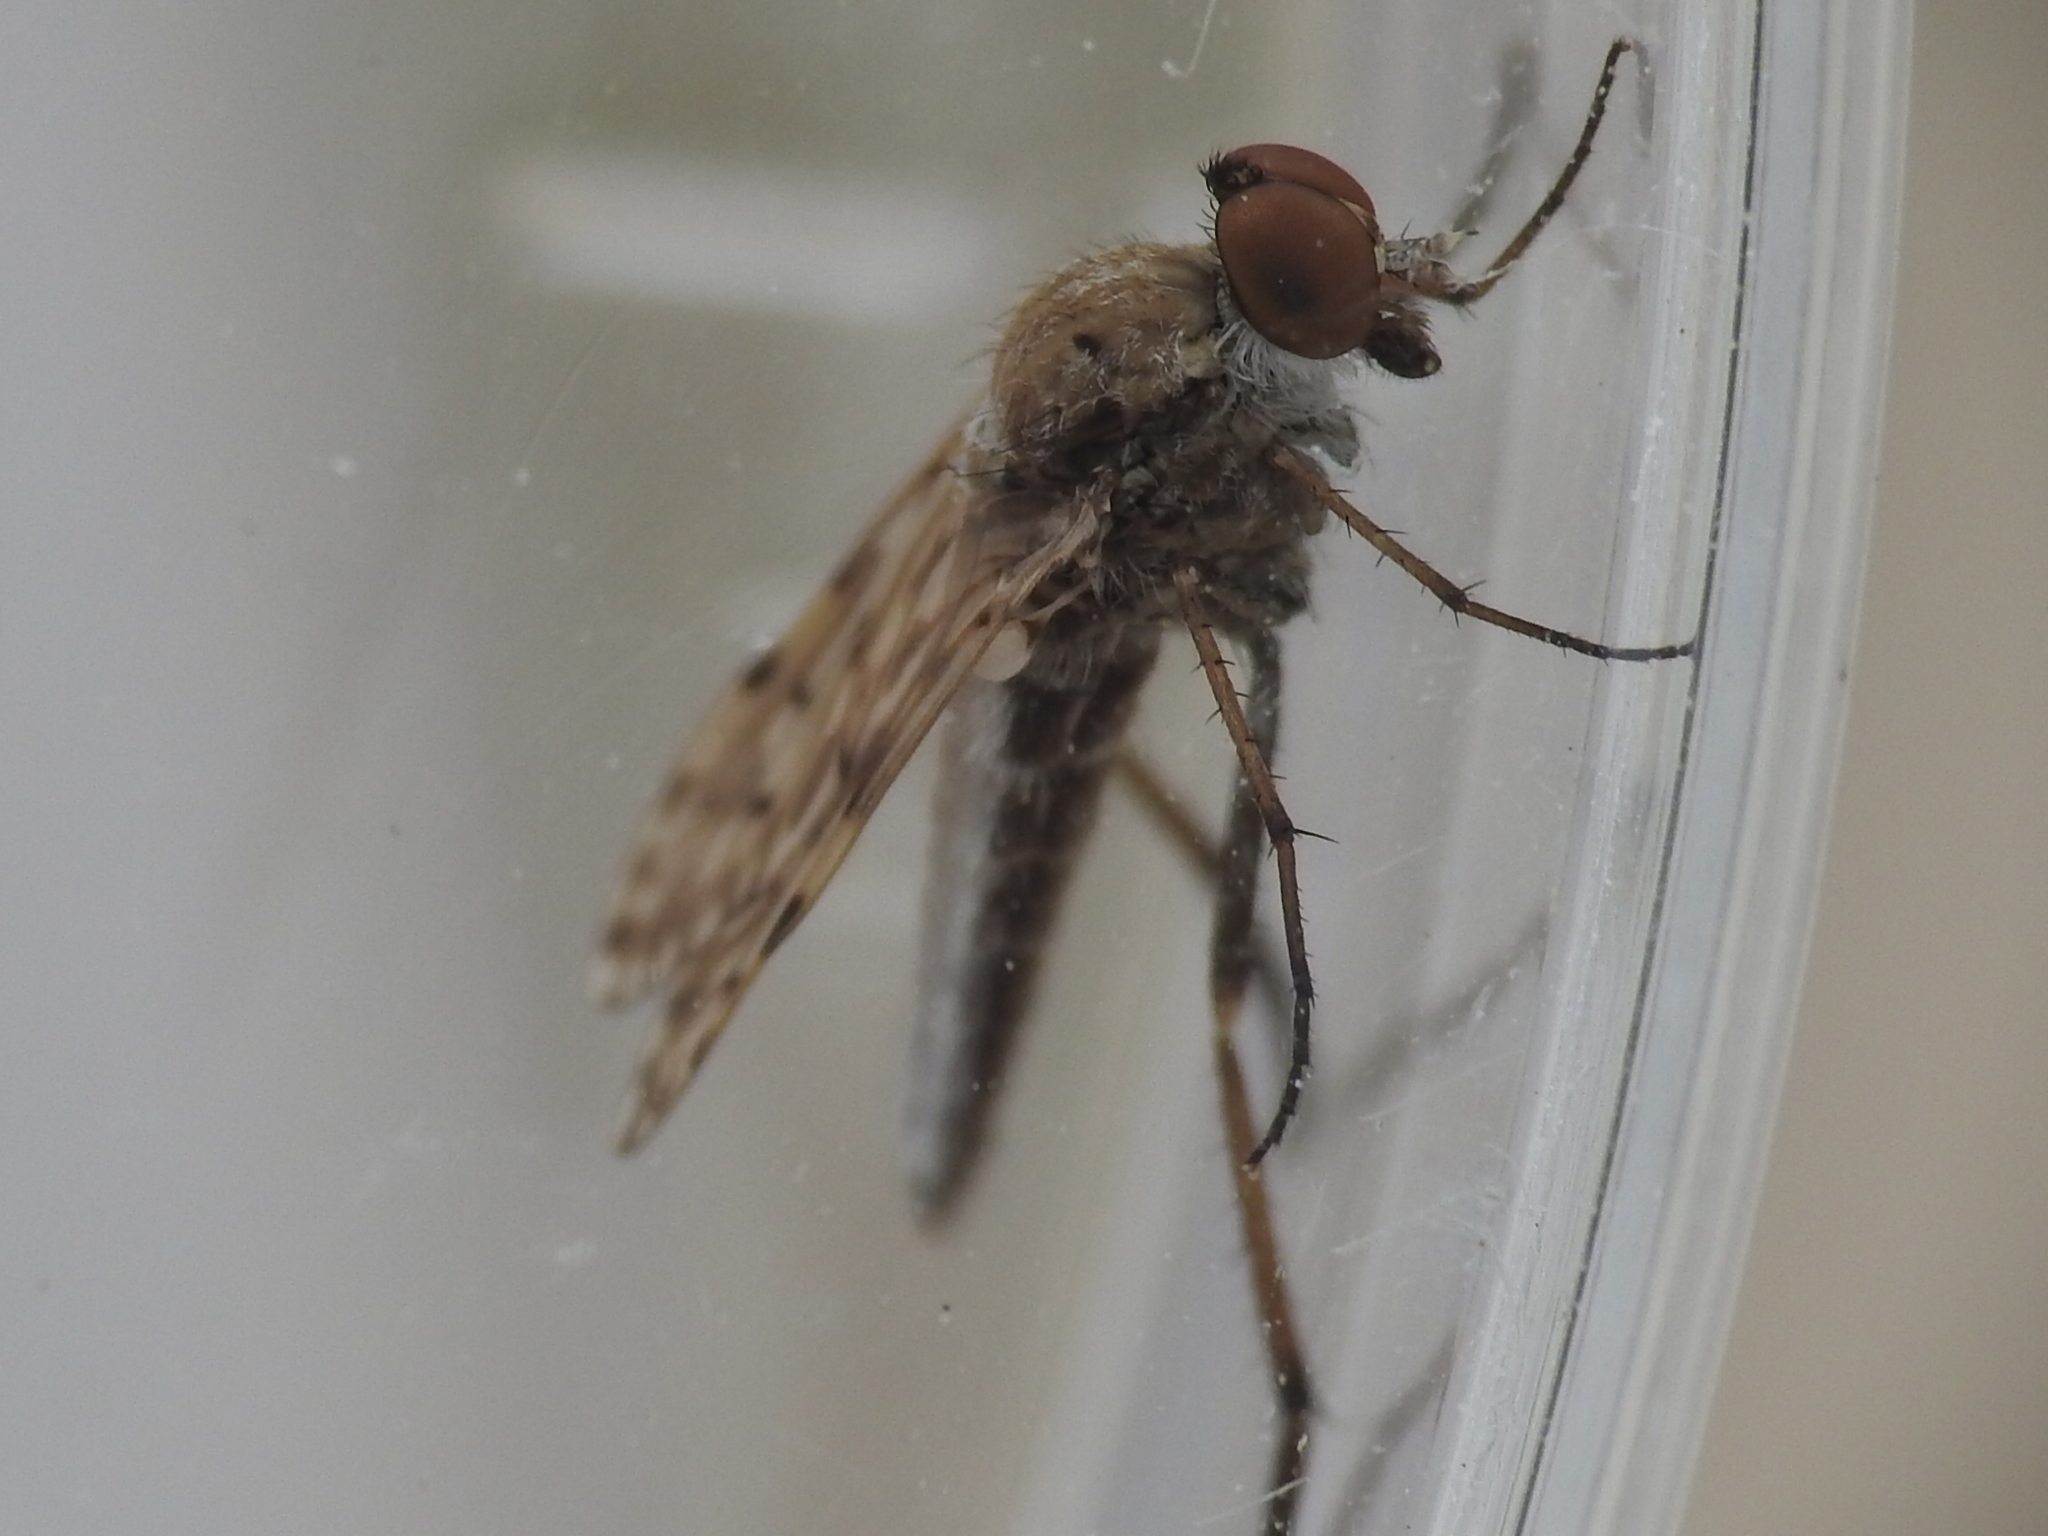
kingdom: Animalia
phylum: Arthropoda
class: Insecta
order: Diptera
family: Therevidae
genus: Litolinga
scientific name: Litolinga acuta
